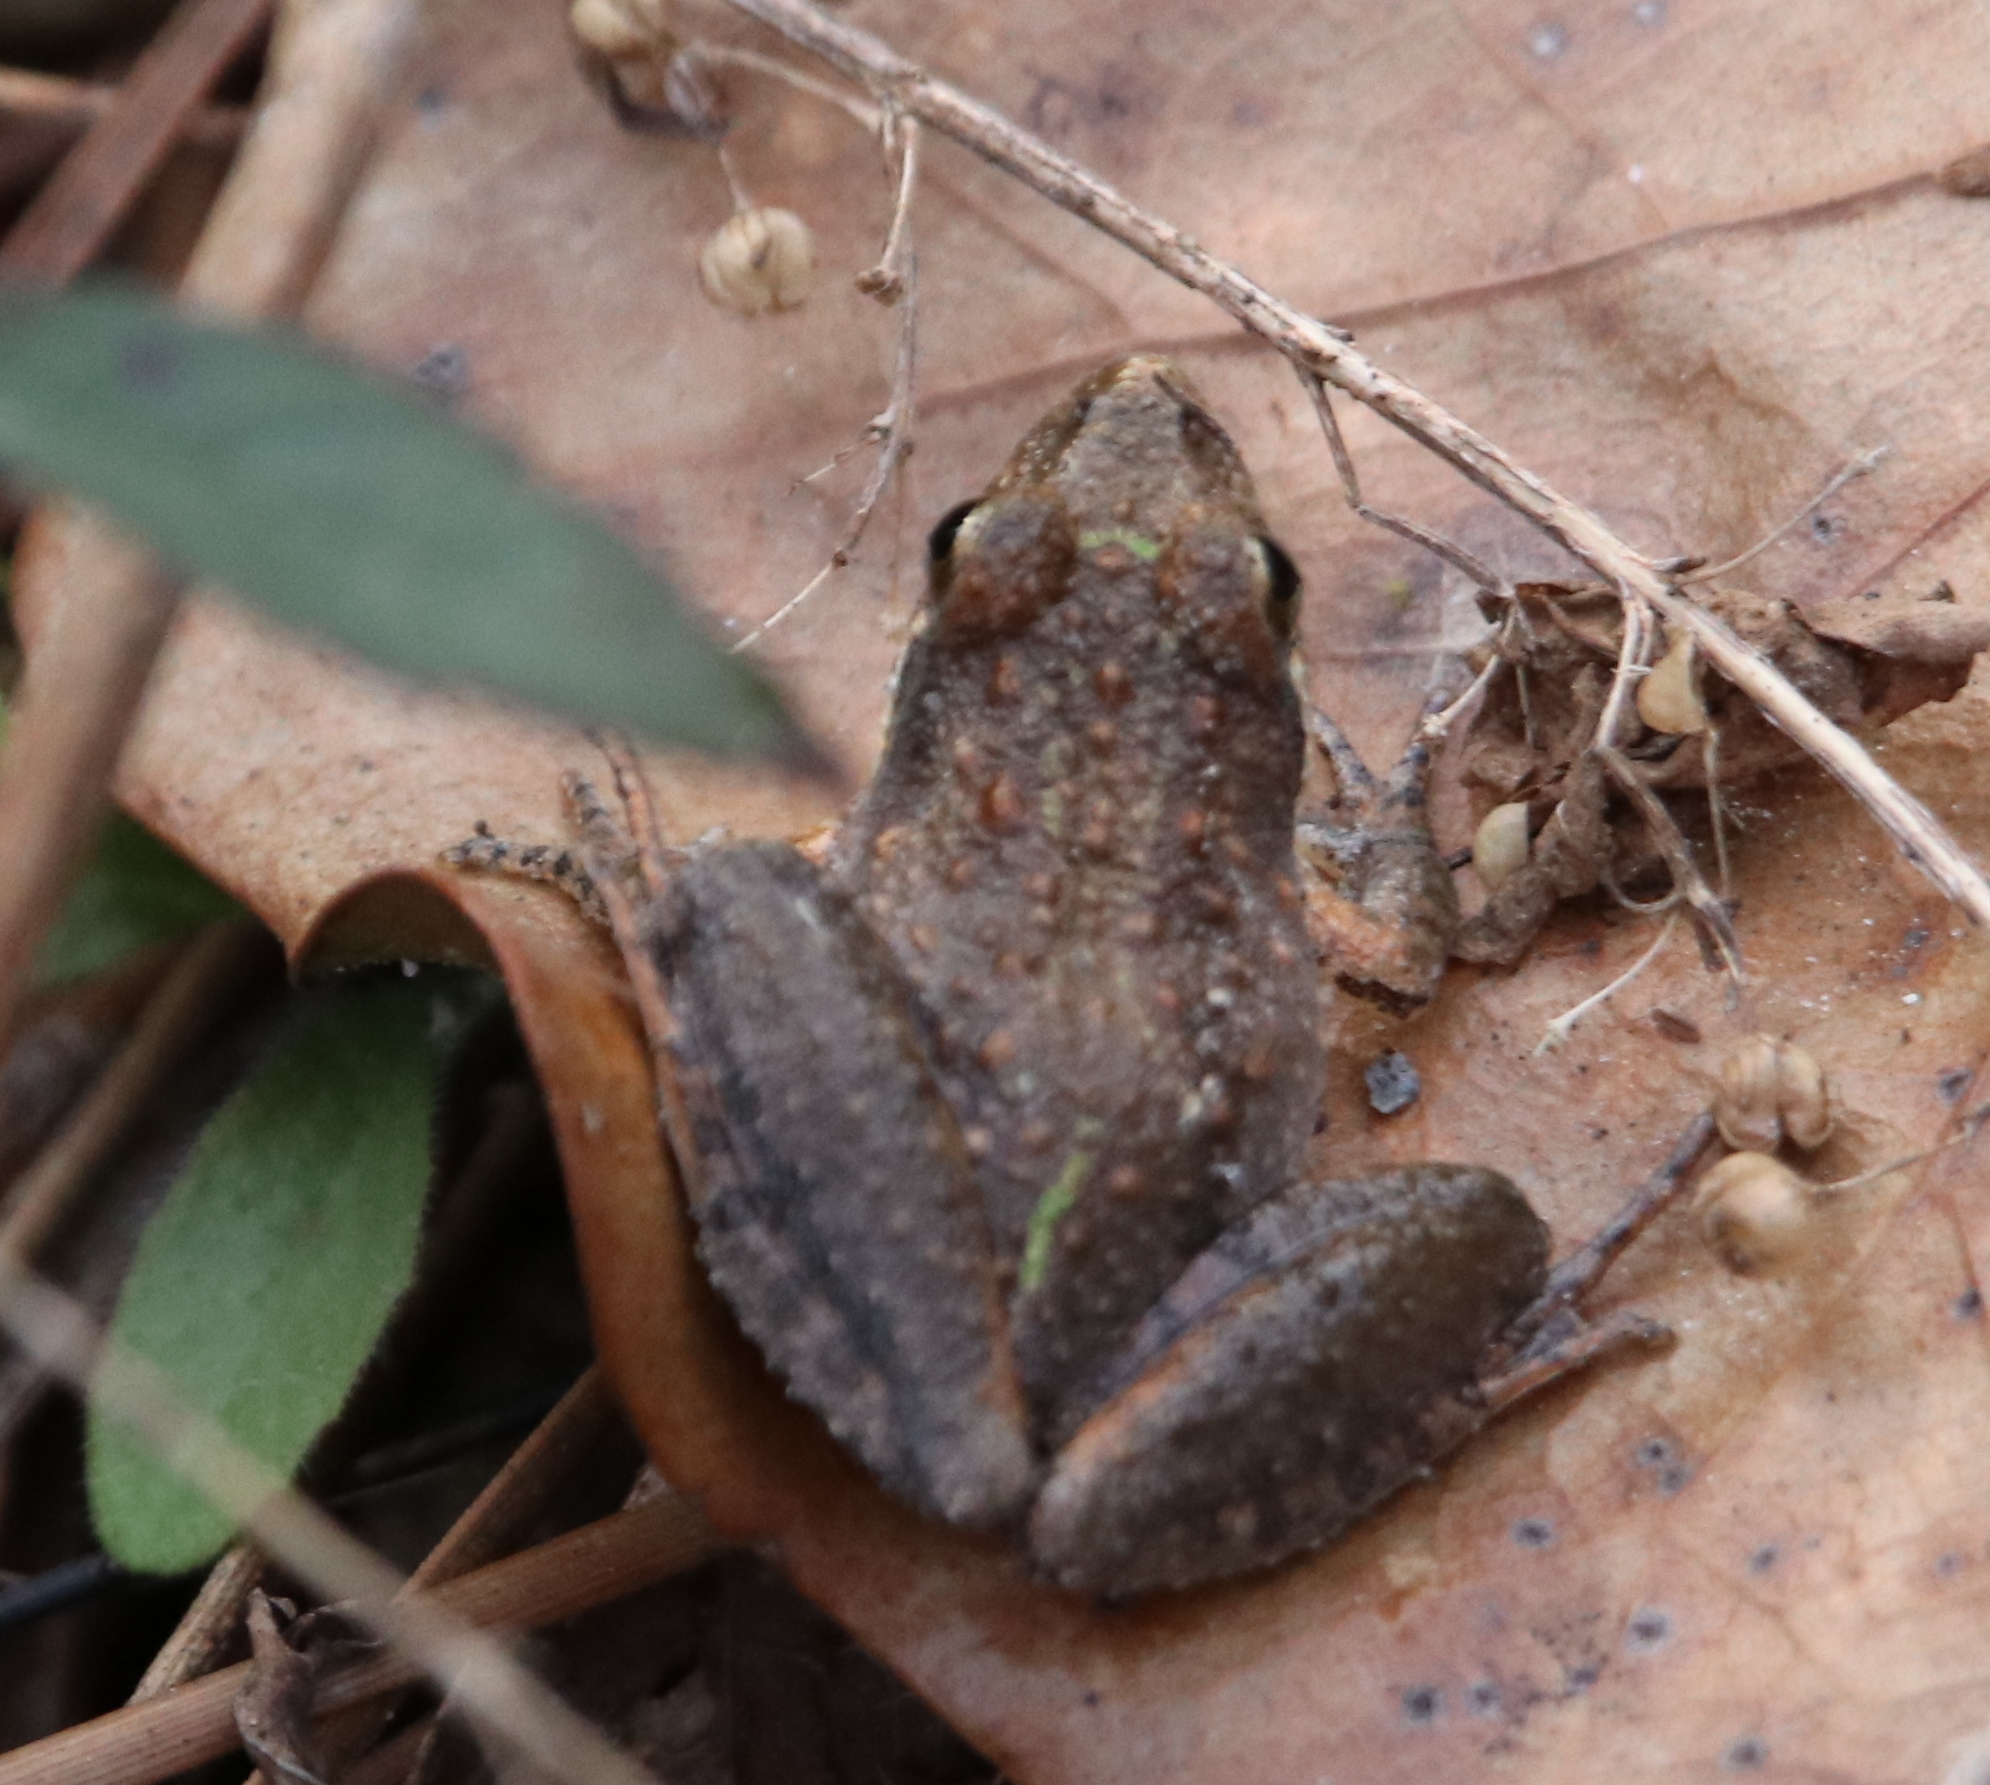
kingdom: Animalia
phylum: Chordata
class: Amphibia
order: Anura
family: Hylidae
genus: Acris
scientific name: Acris gryllus
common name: Southern cricket frog
